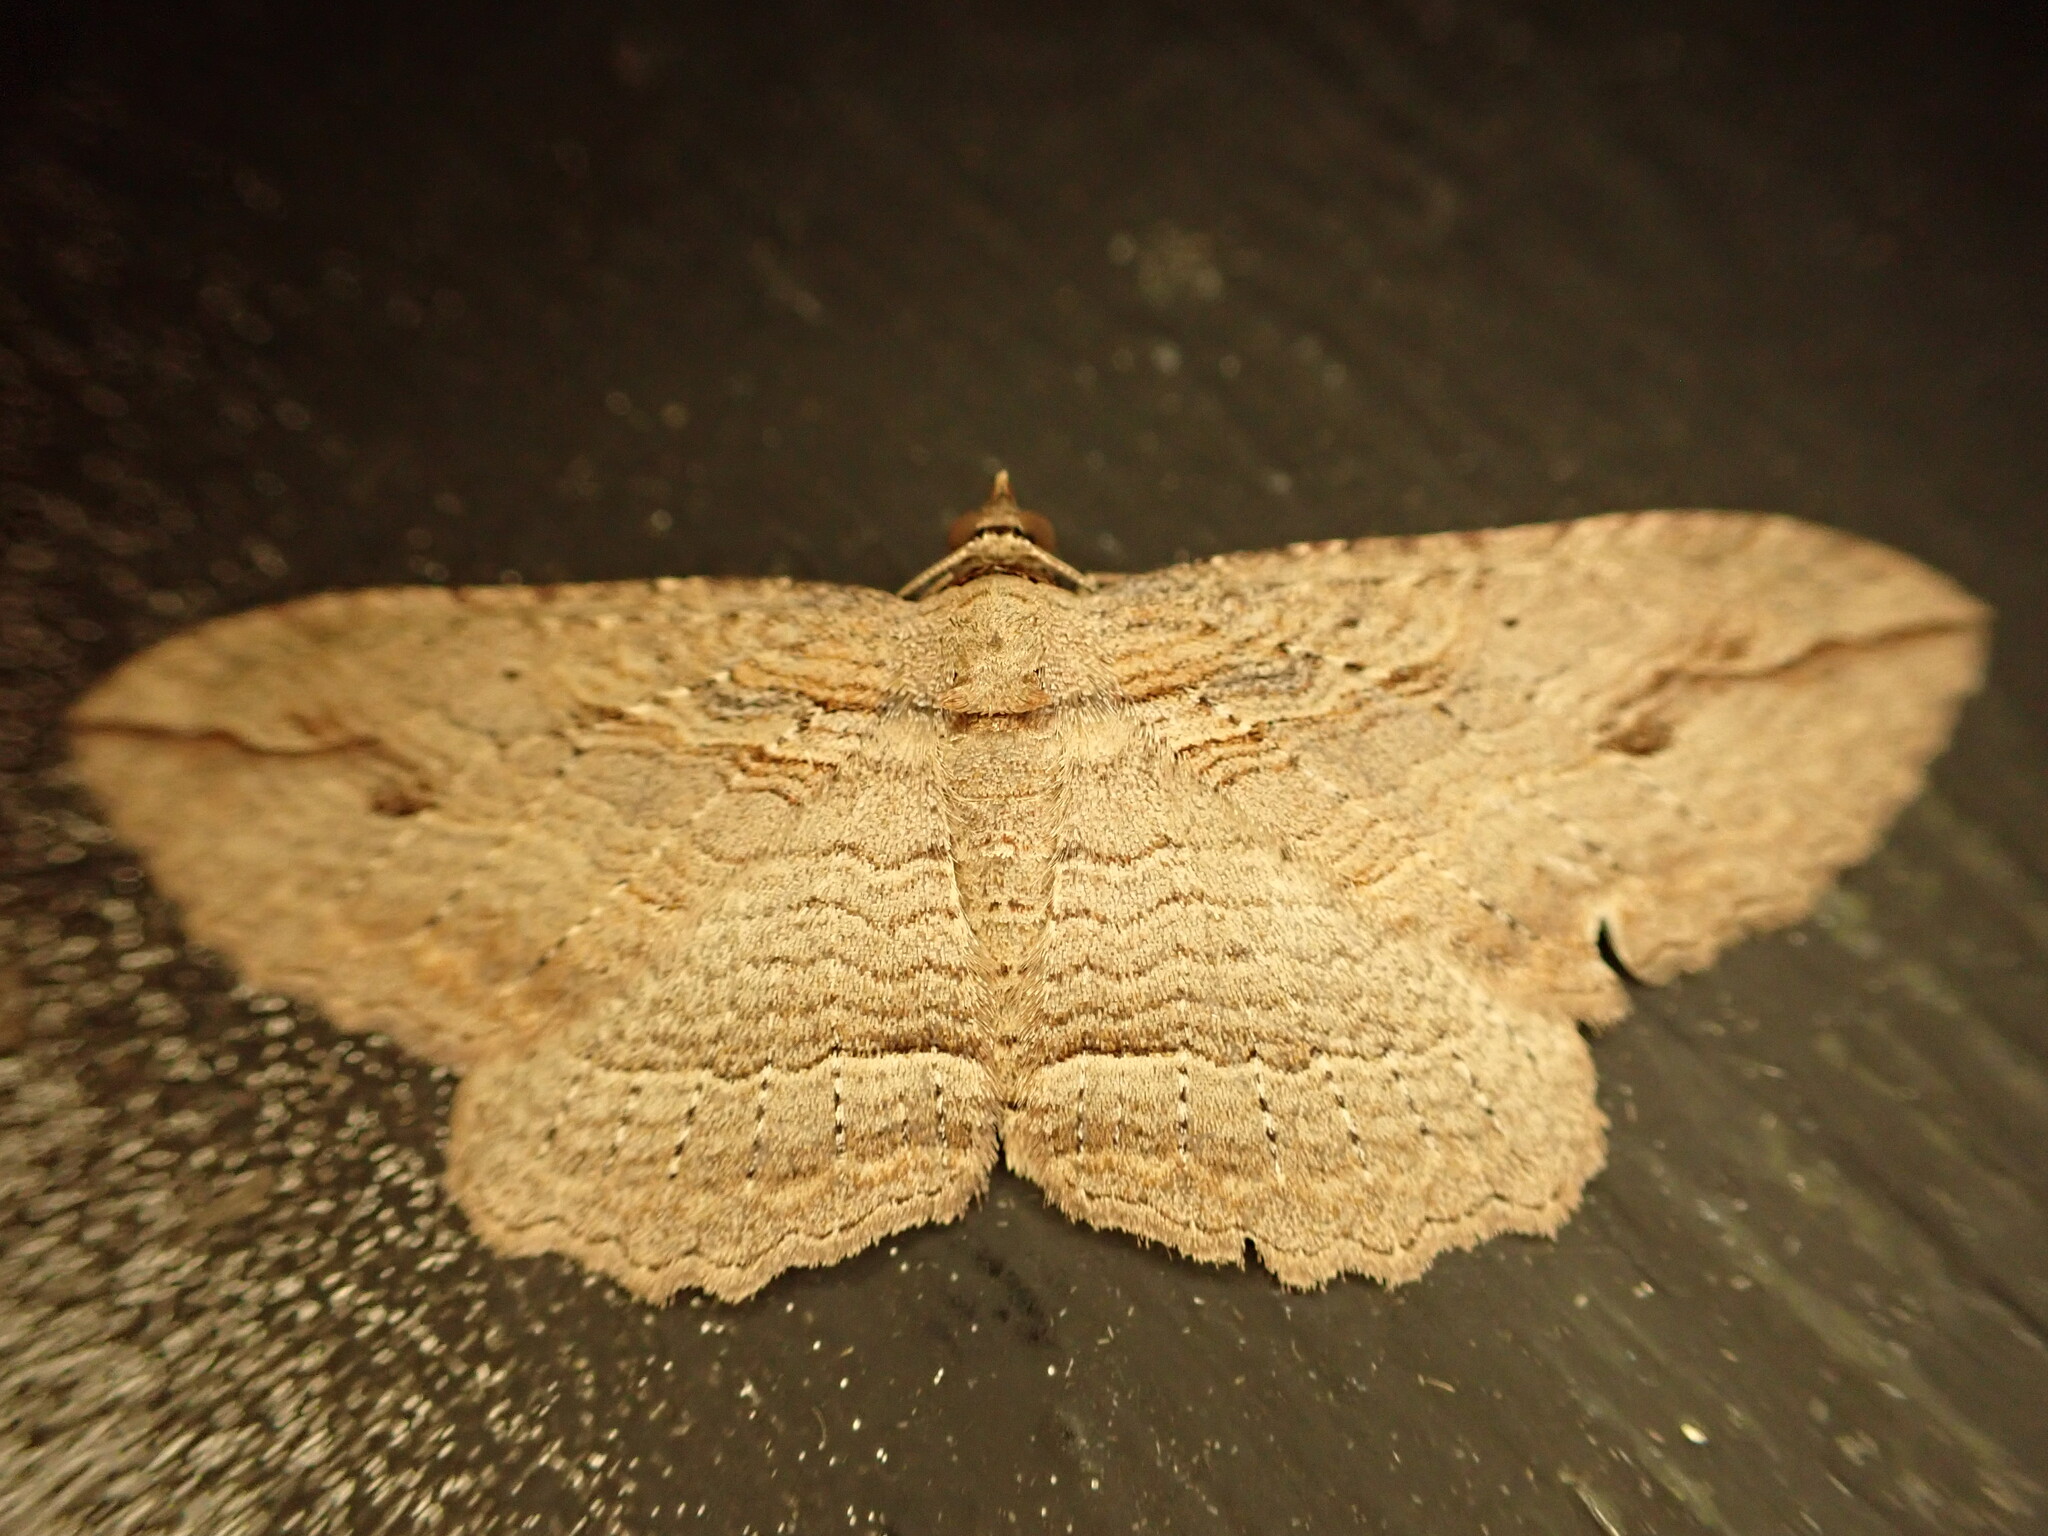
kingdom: Animalia
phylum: Arthropoda
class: Insecta
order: Lepidoptera
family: Geometridae
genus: Austrocidaria
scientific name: Austrocidaria gobiata
